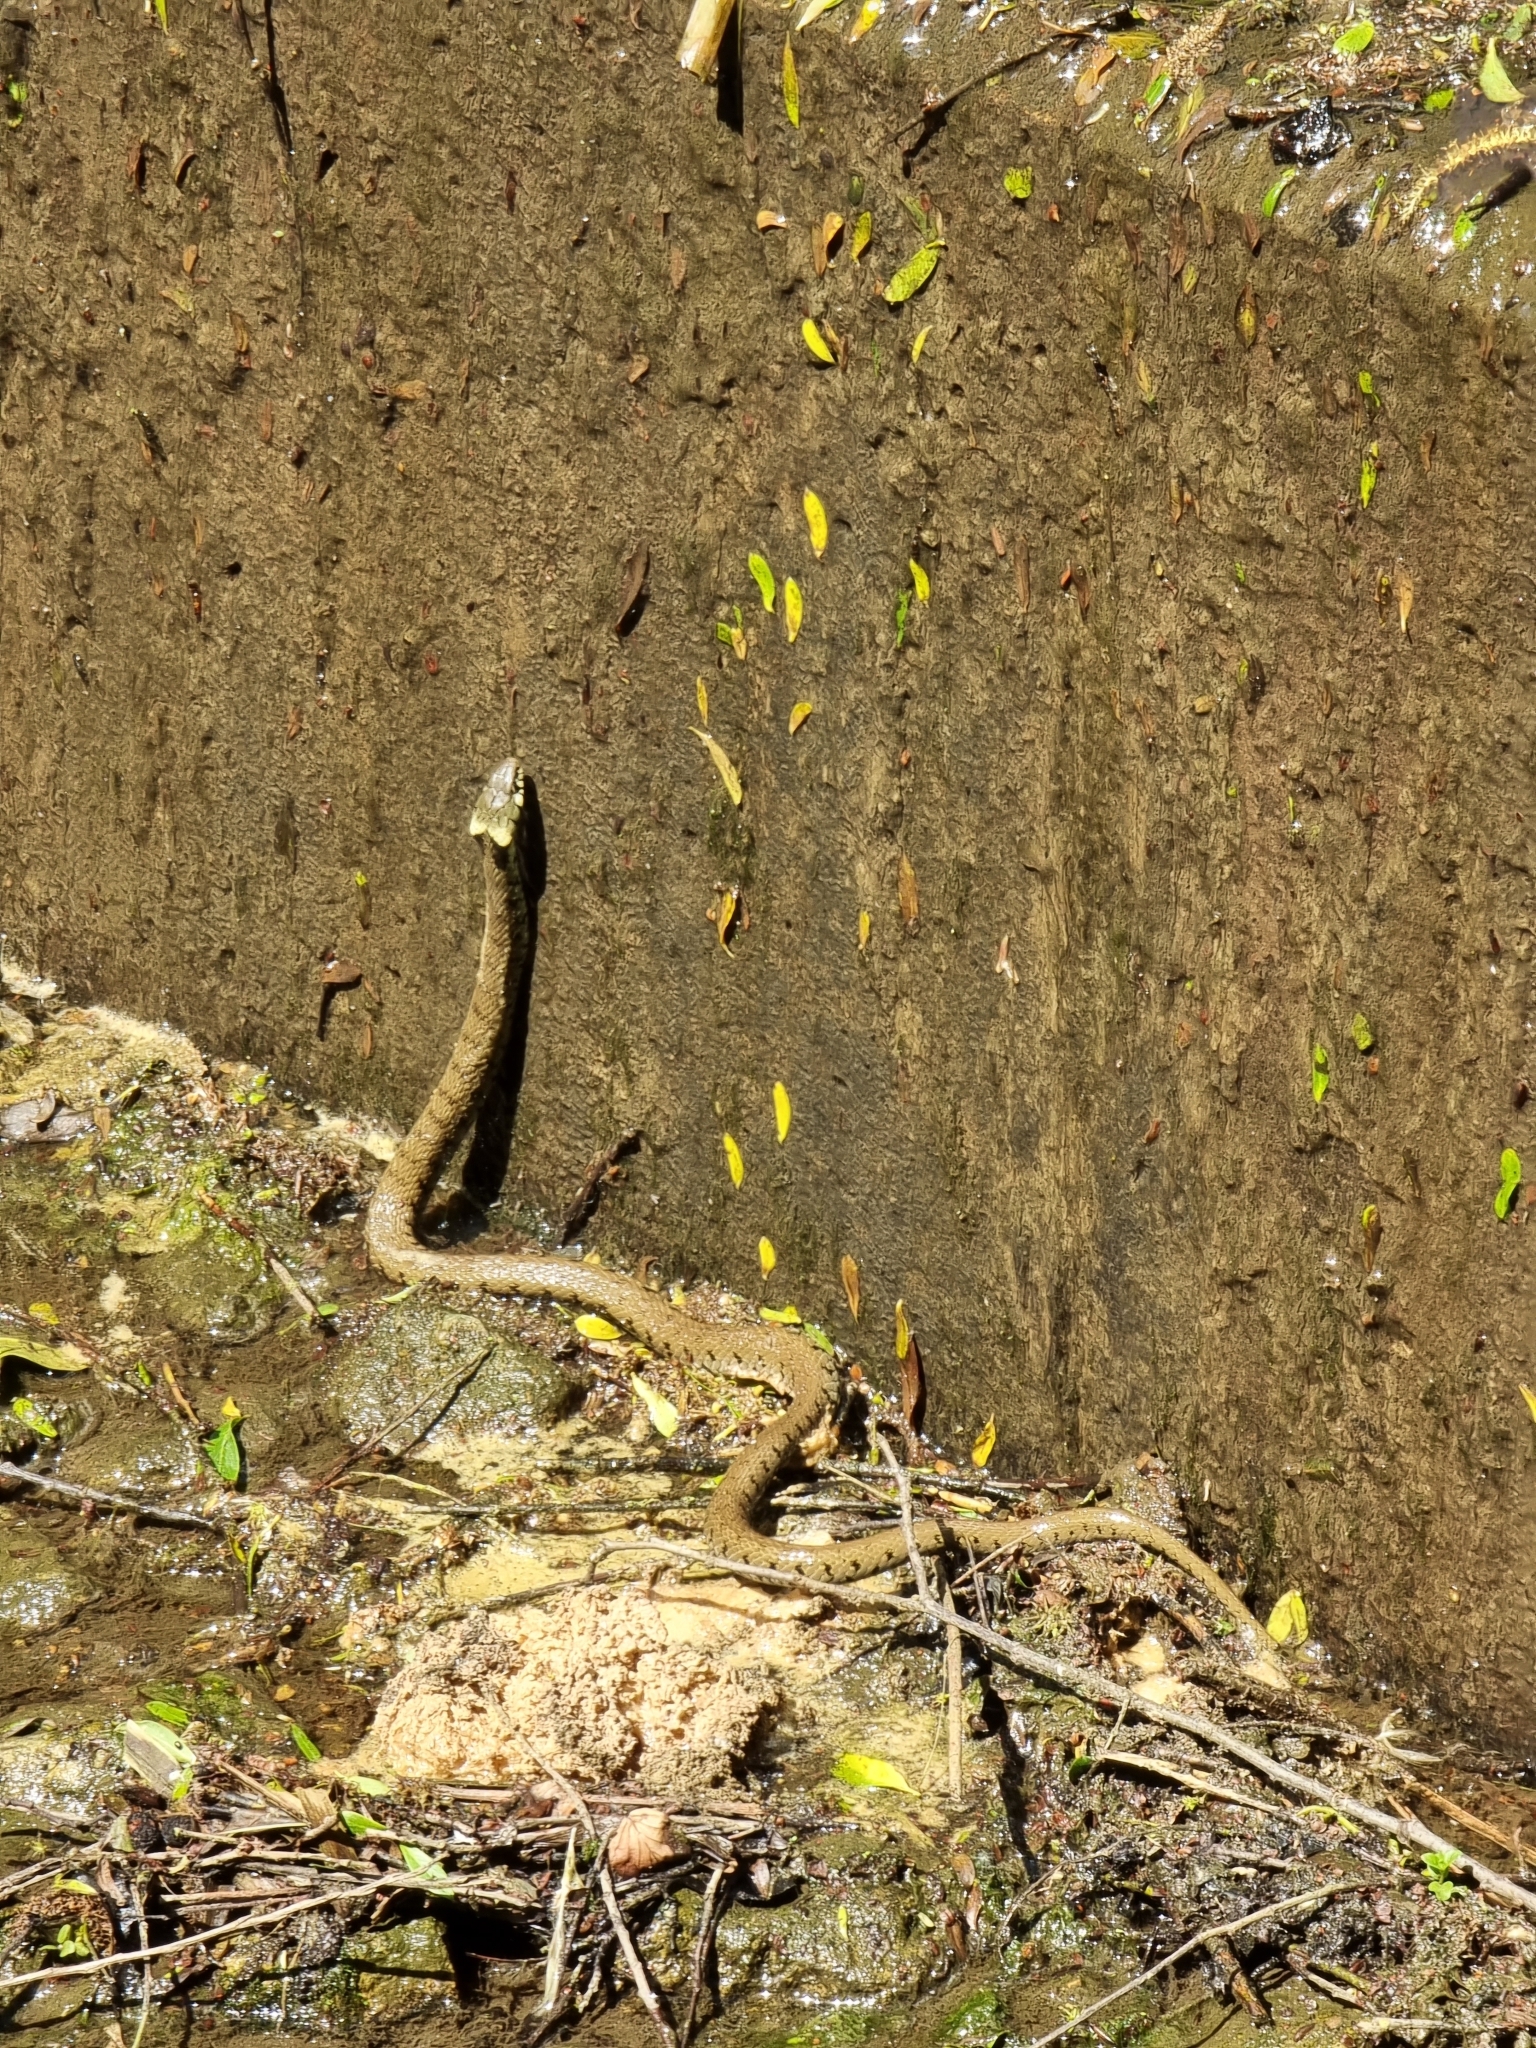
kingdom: Animalia
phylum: Chordata
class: Squamata
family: Colubridae
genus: Natrix
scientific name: Natrix helvetica
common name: Banded grass snake
